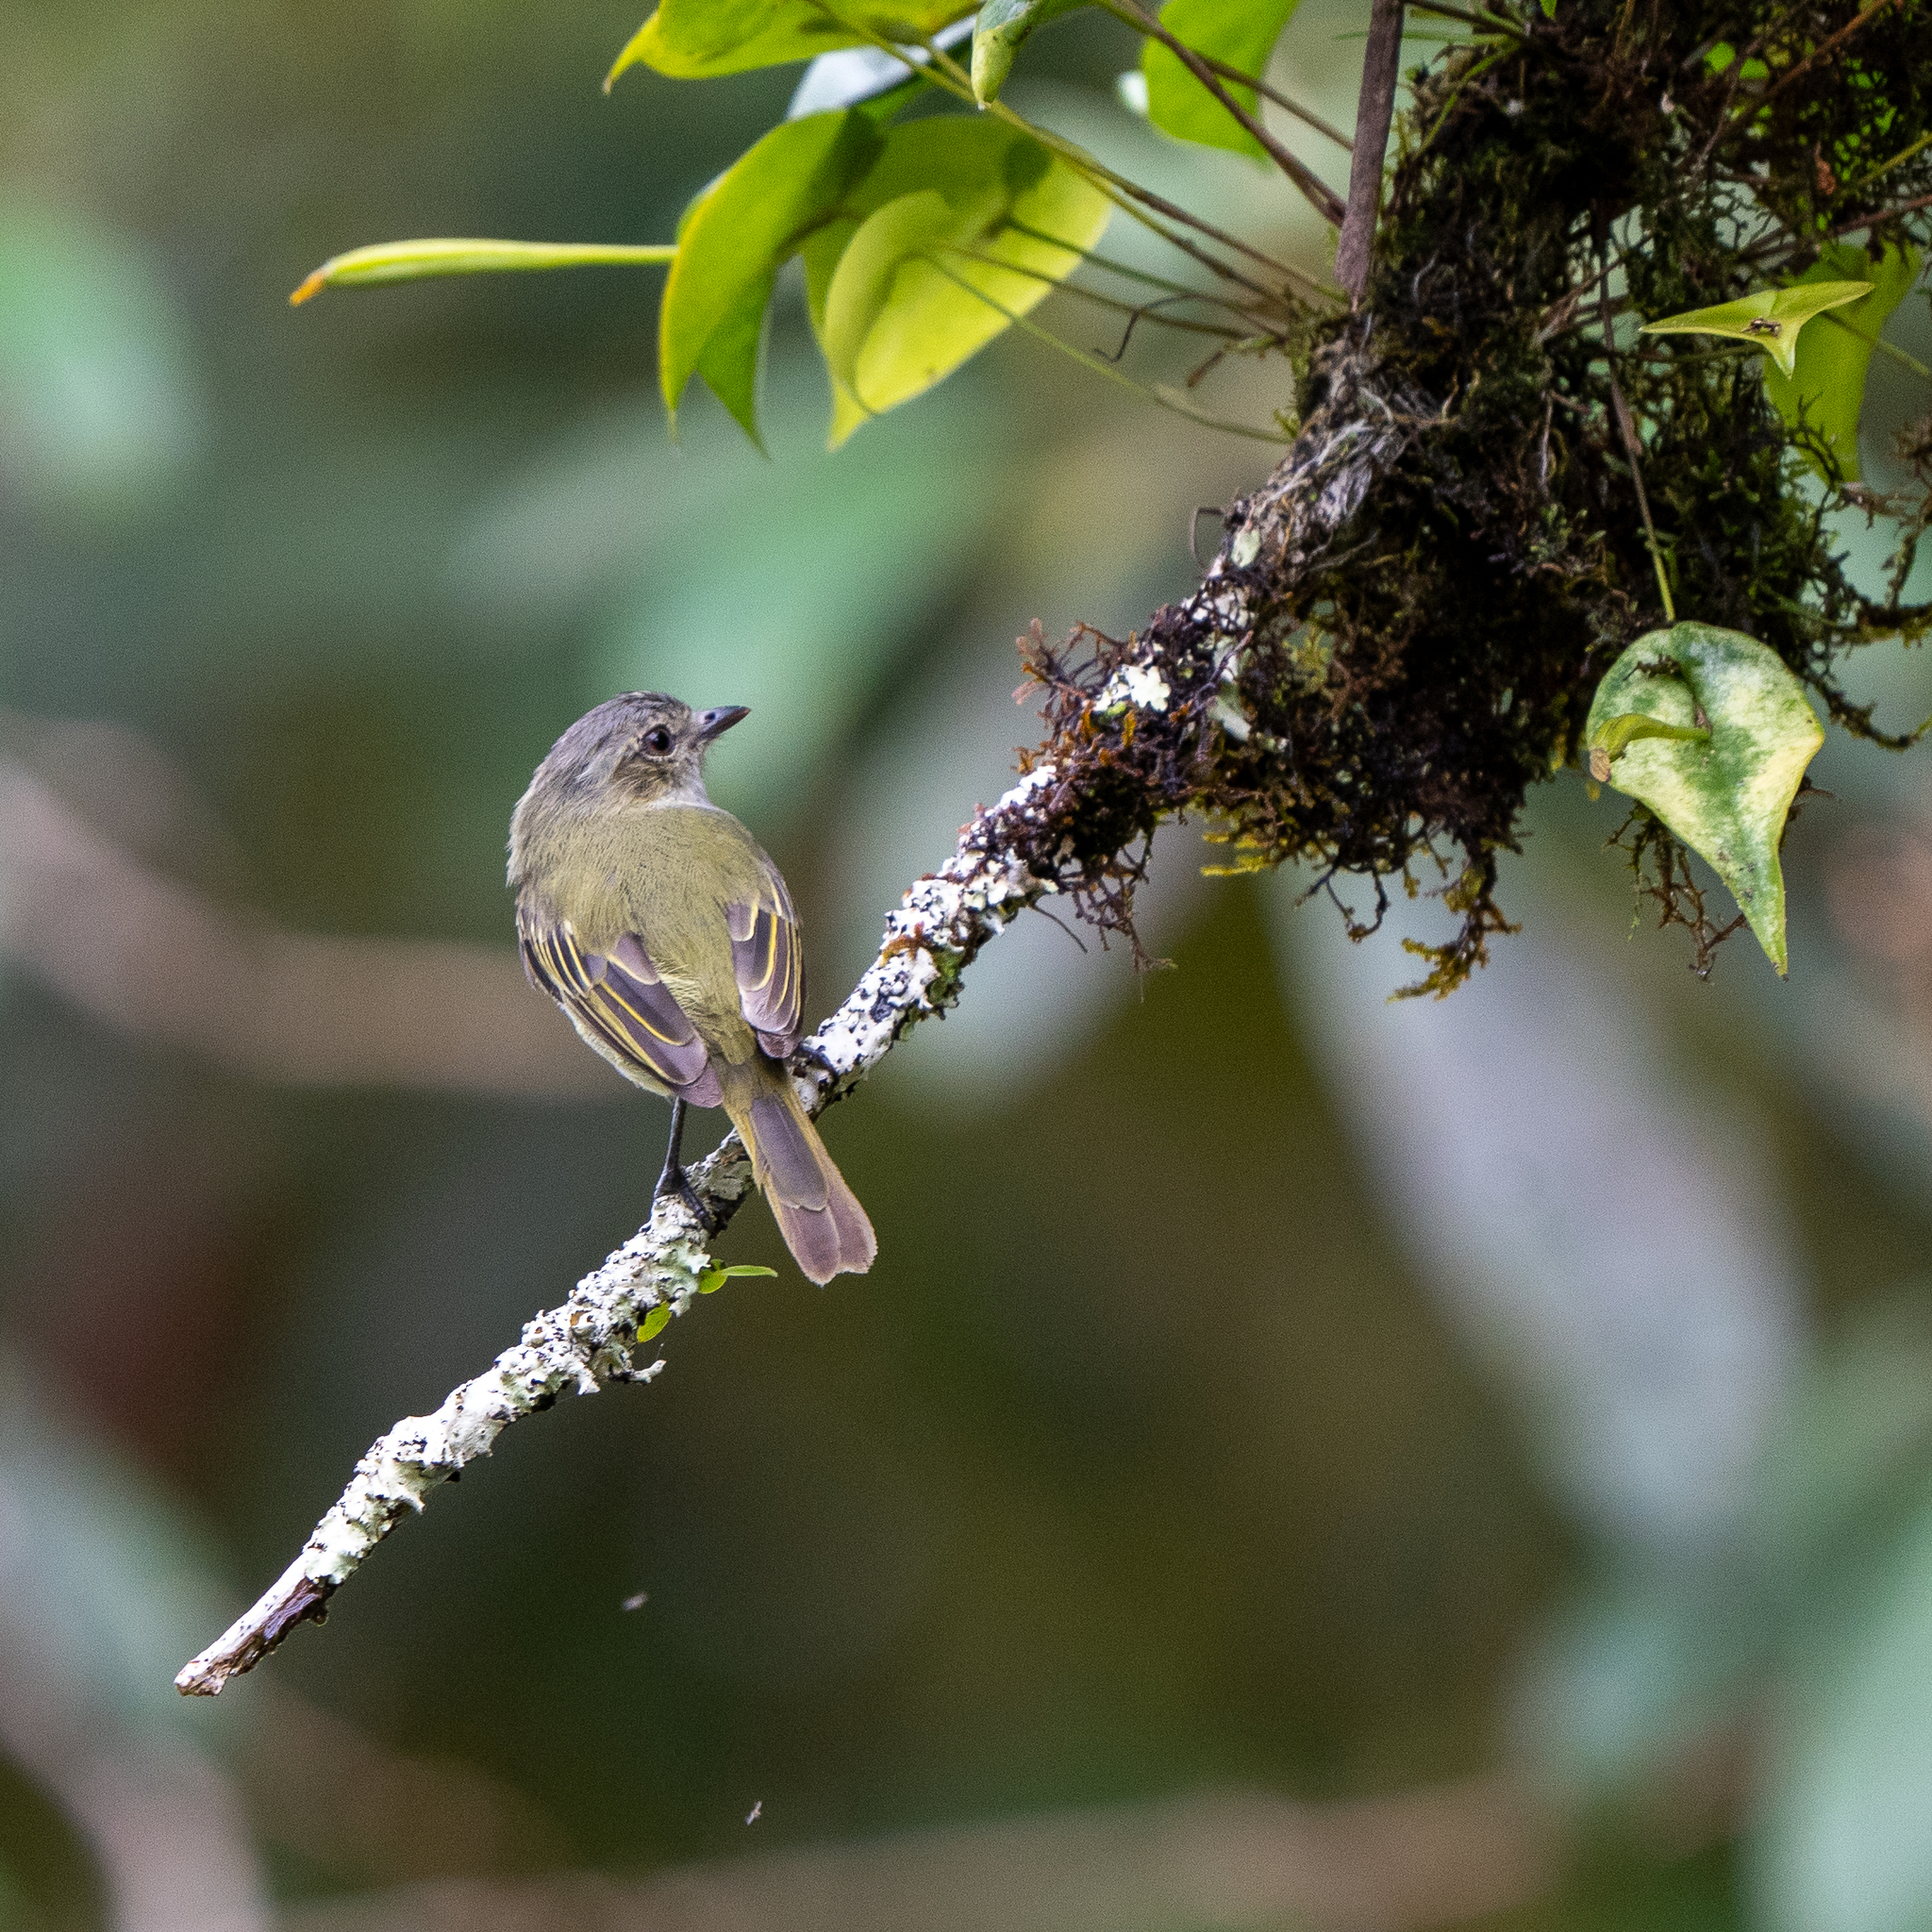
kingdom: Animalia
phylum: Chordata
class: Aves
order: Passeriformes
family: Tyrannidae
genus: Zimmerius
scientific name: Zimmerius vilissimus
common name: Paltry tyrannulet
